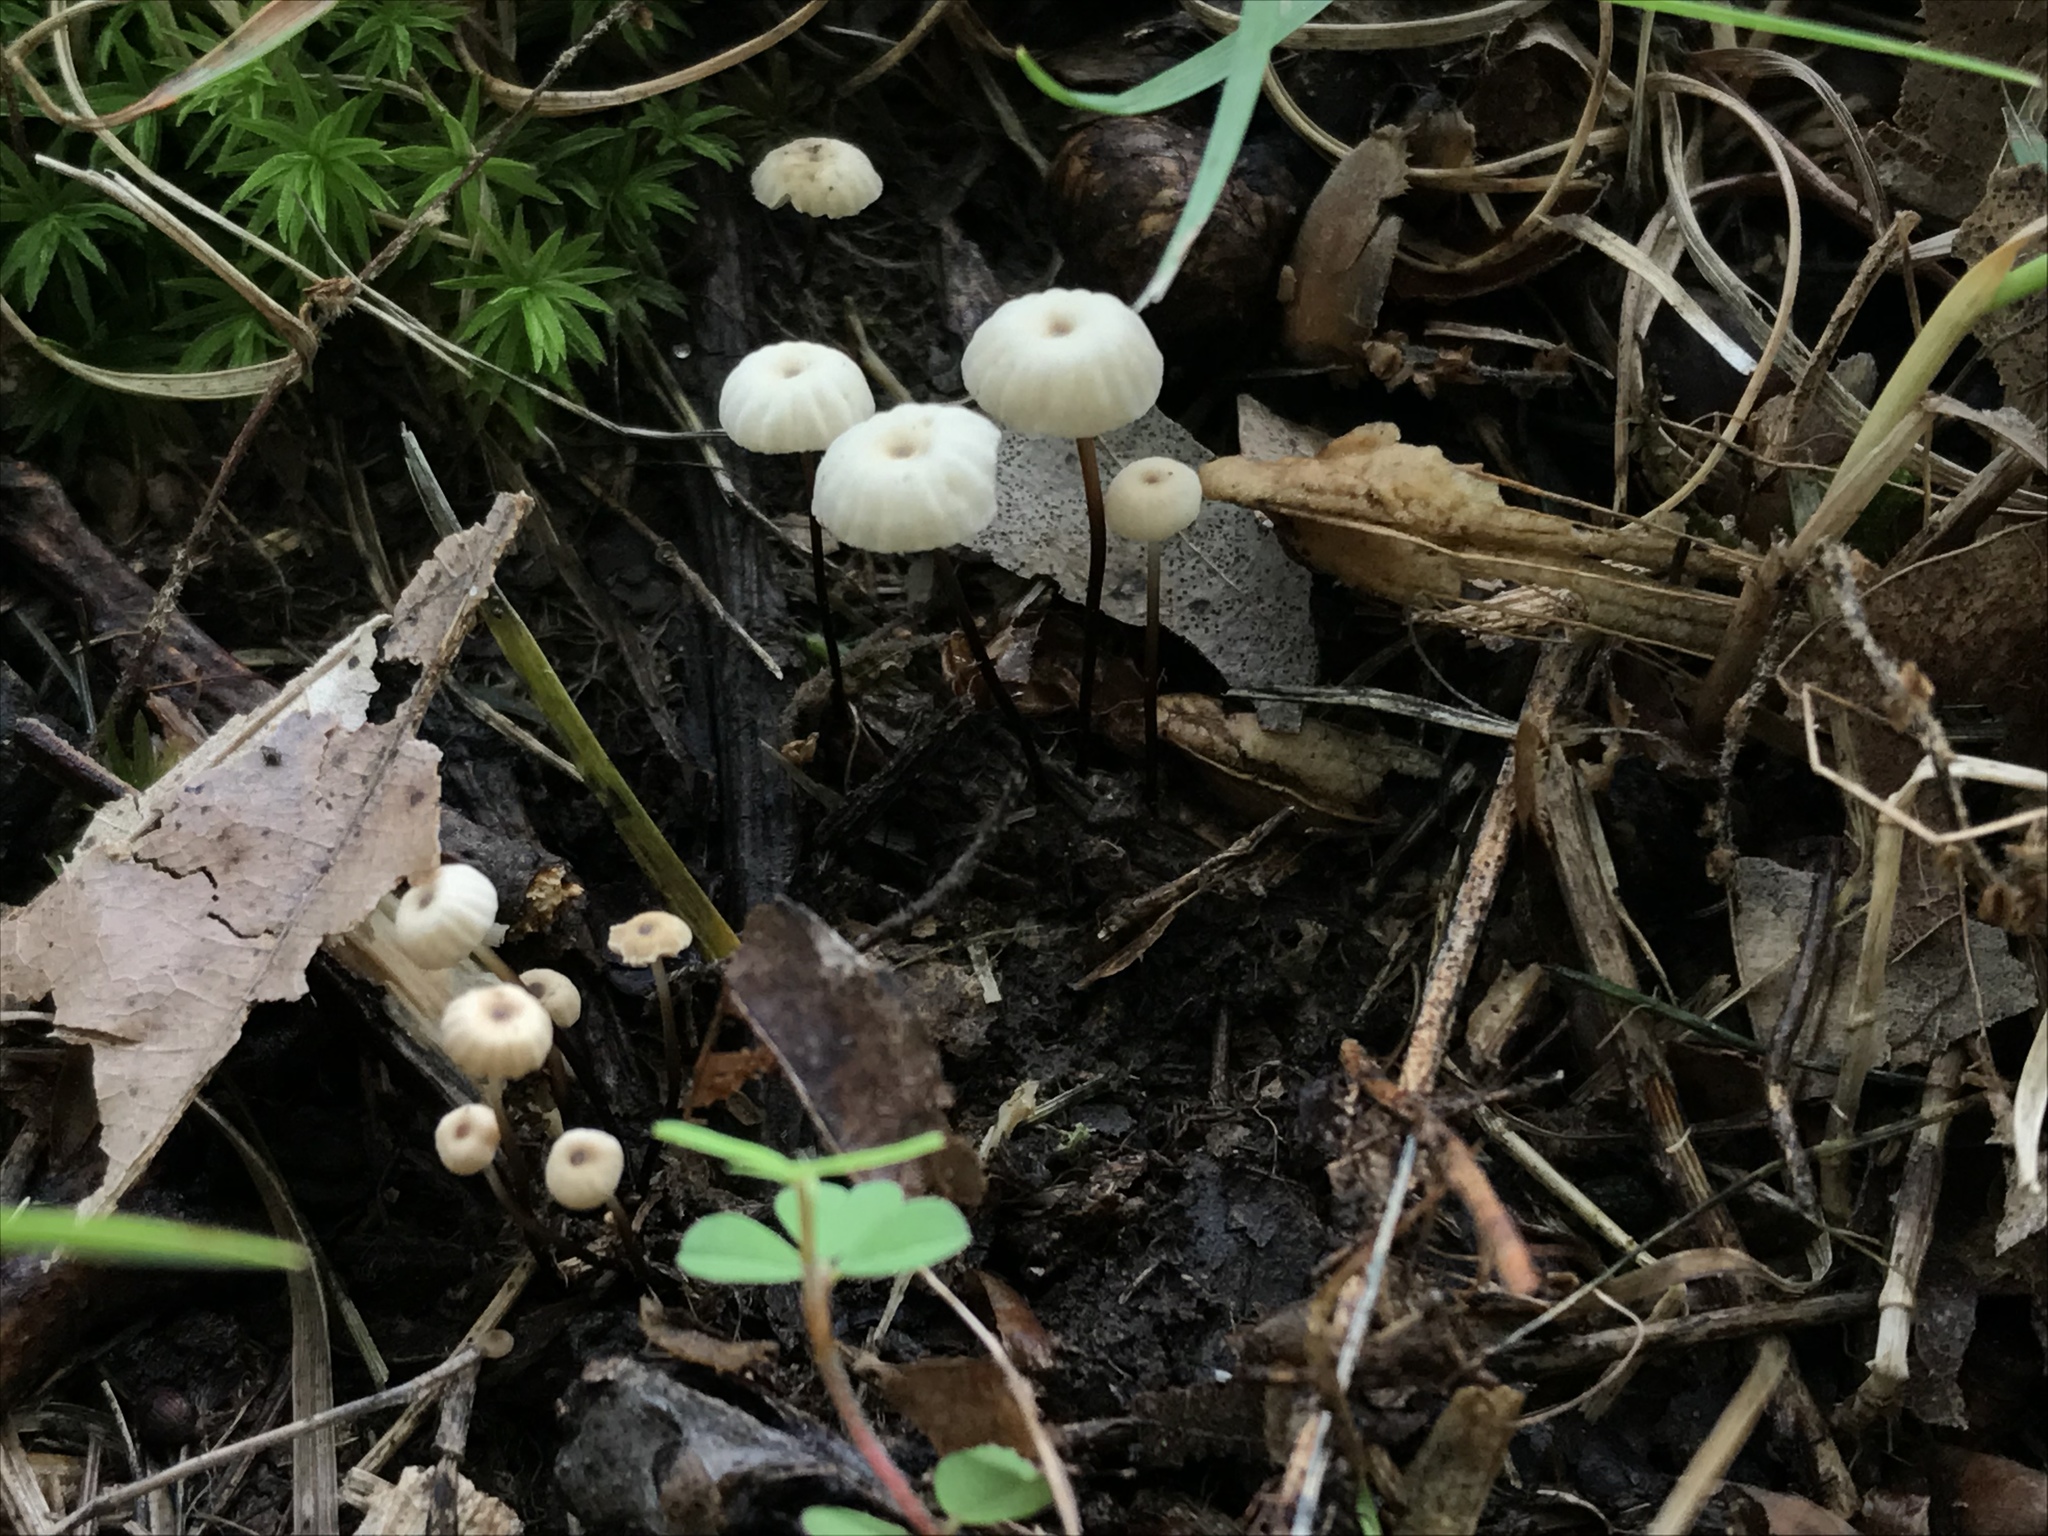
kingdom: Fungi
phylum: Basidiomycota
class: Agaricomycetes
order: Agaricales
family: Marasmiaceae
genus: Marasmius
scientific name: Marasmius rotula
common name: Collared parachute
